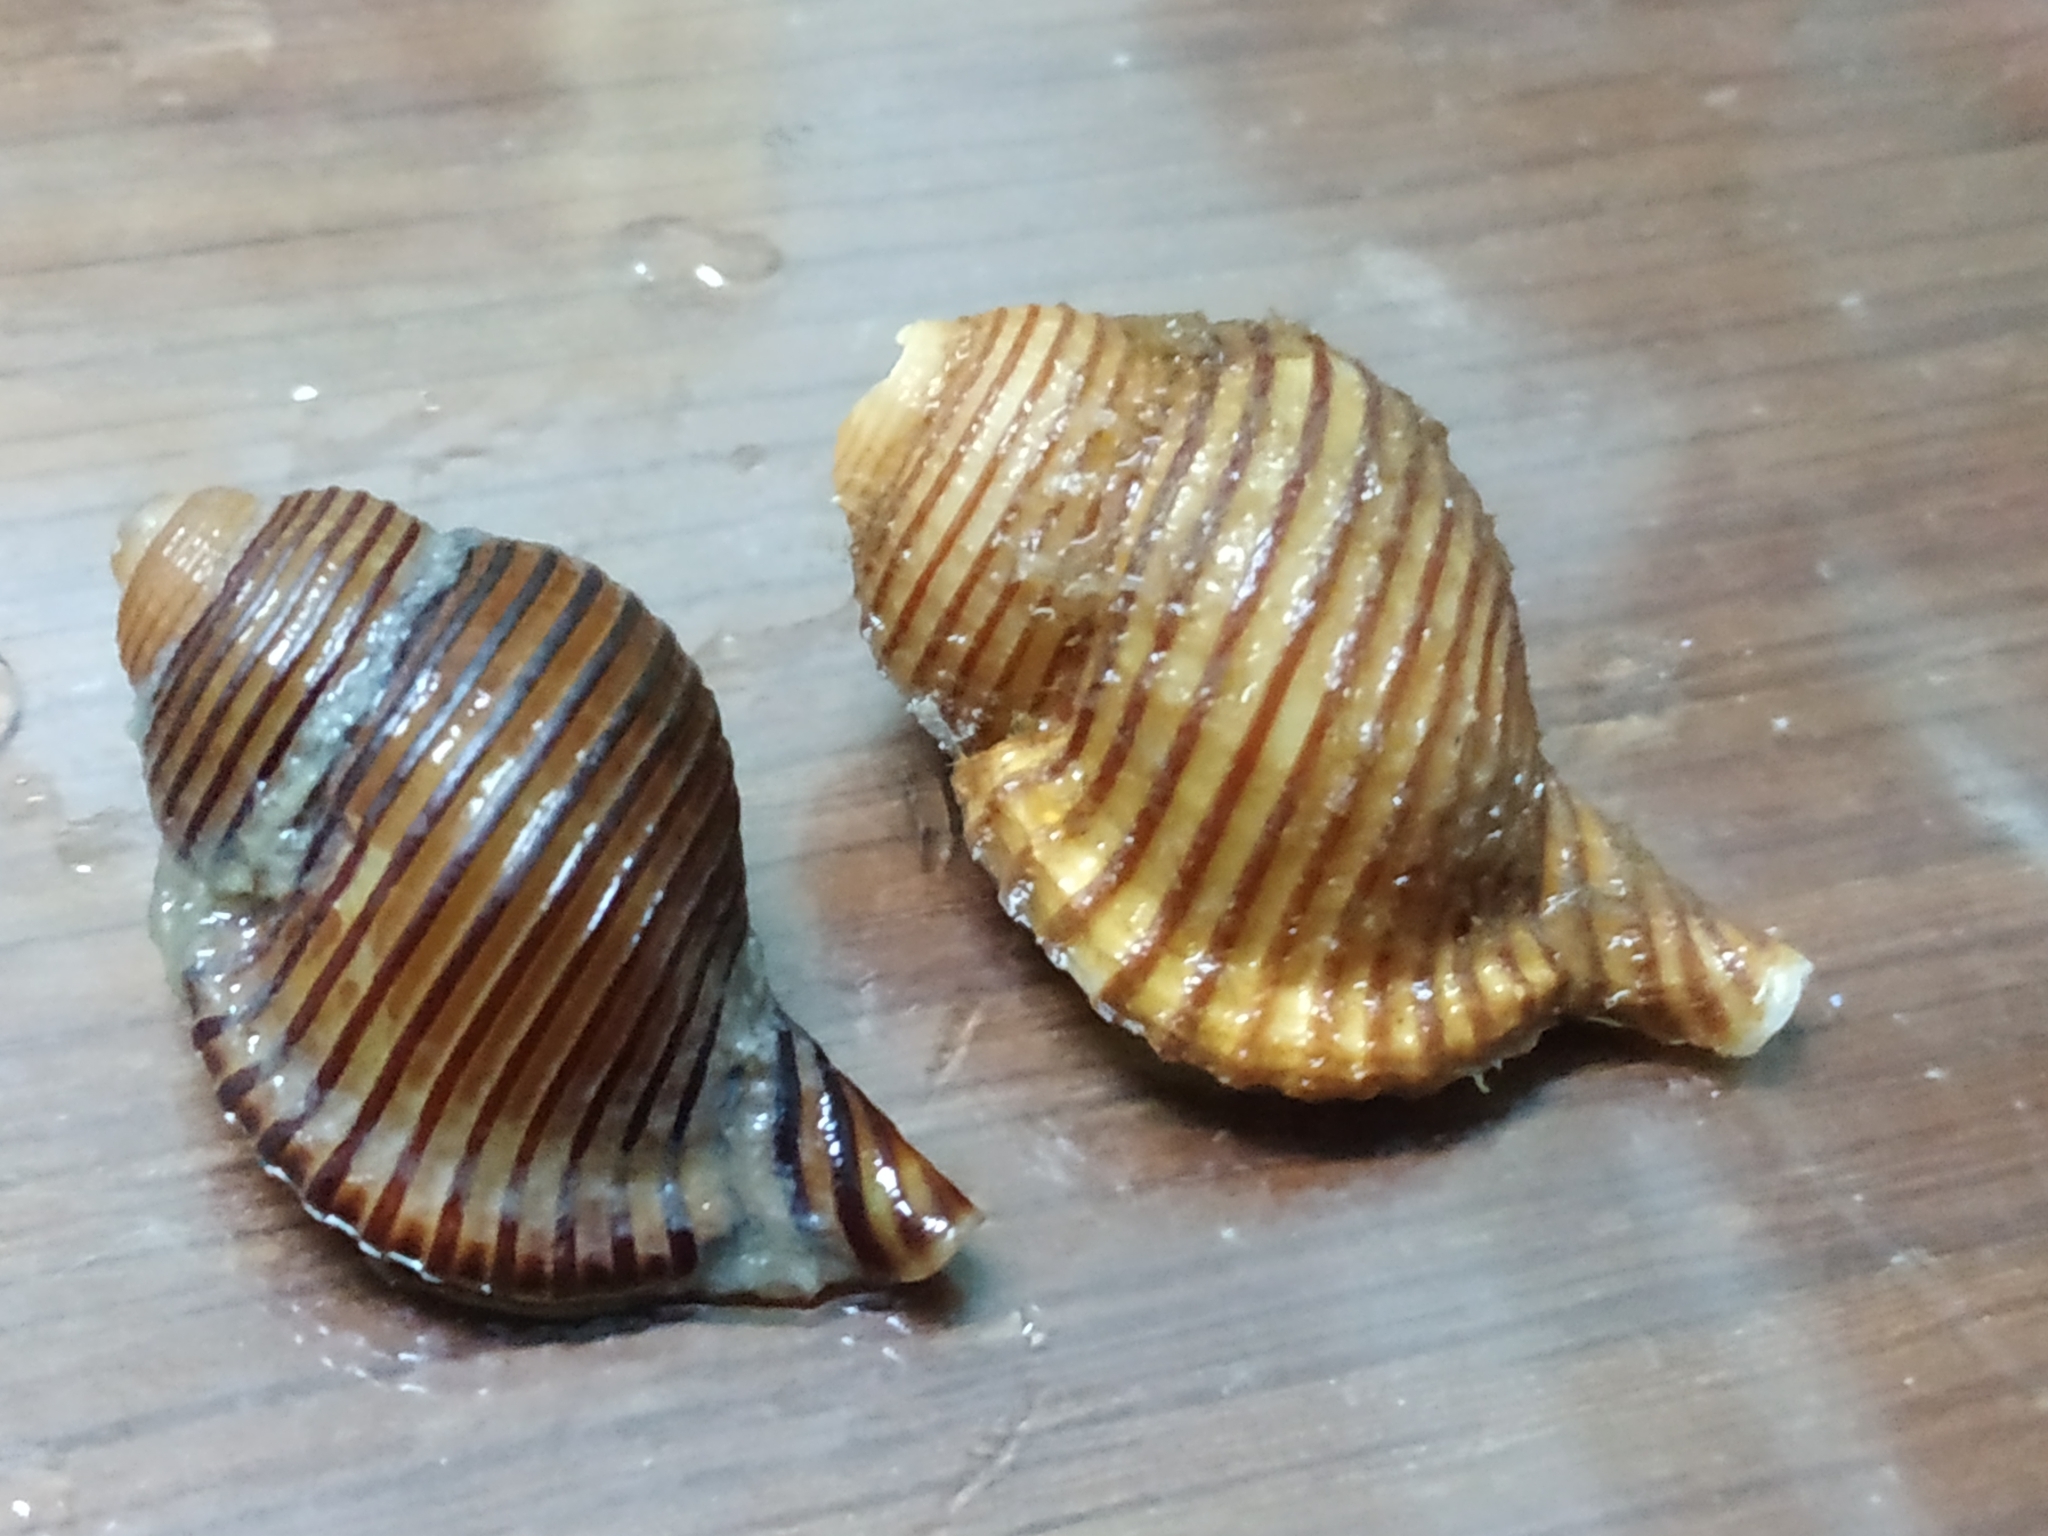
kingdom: Animalia
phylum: Mollusca
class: Gastropoda
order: Littorinimorpha
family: Cymatiidae
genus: Gelagna
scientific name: Gelagna succincta
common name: Lesser girdled triton
